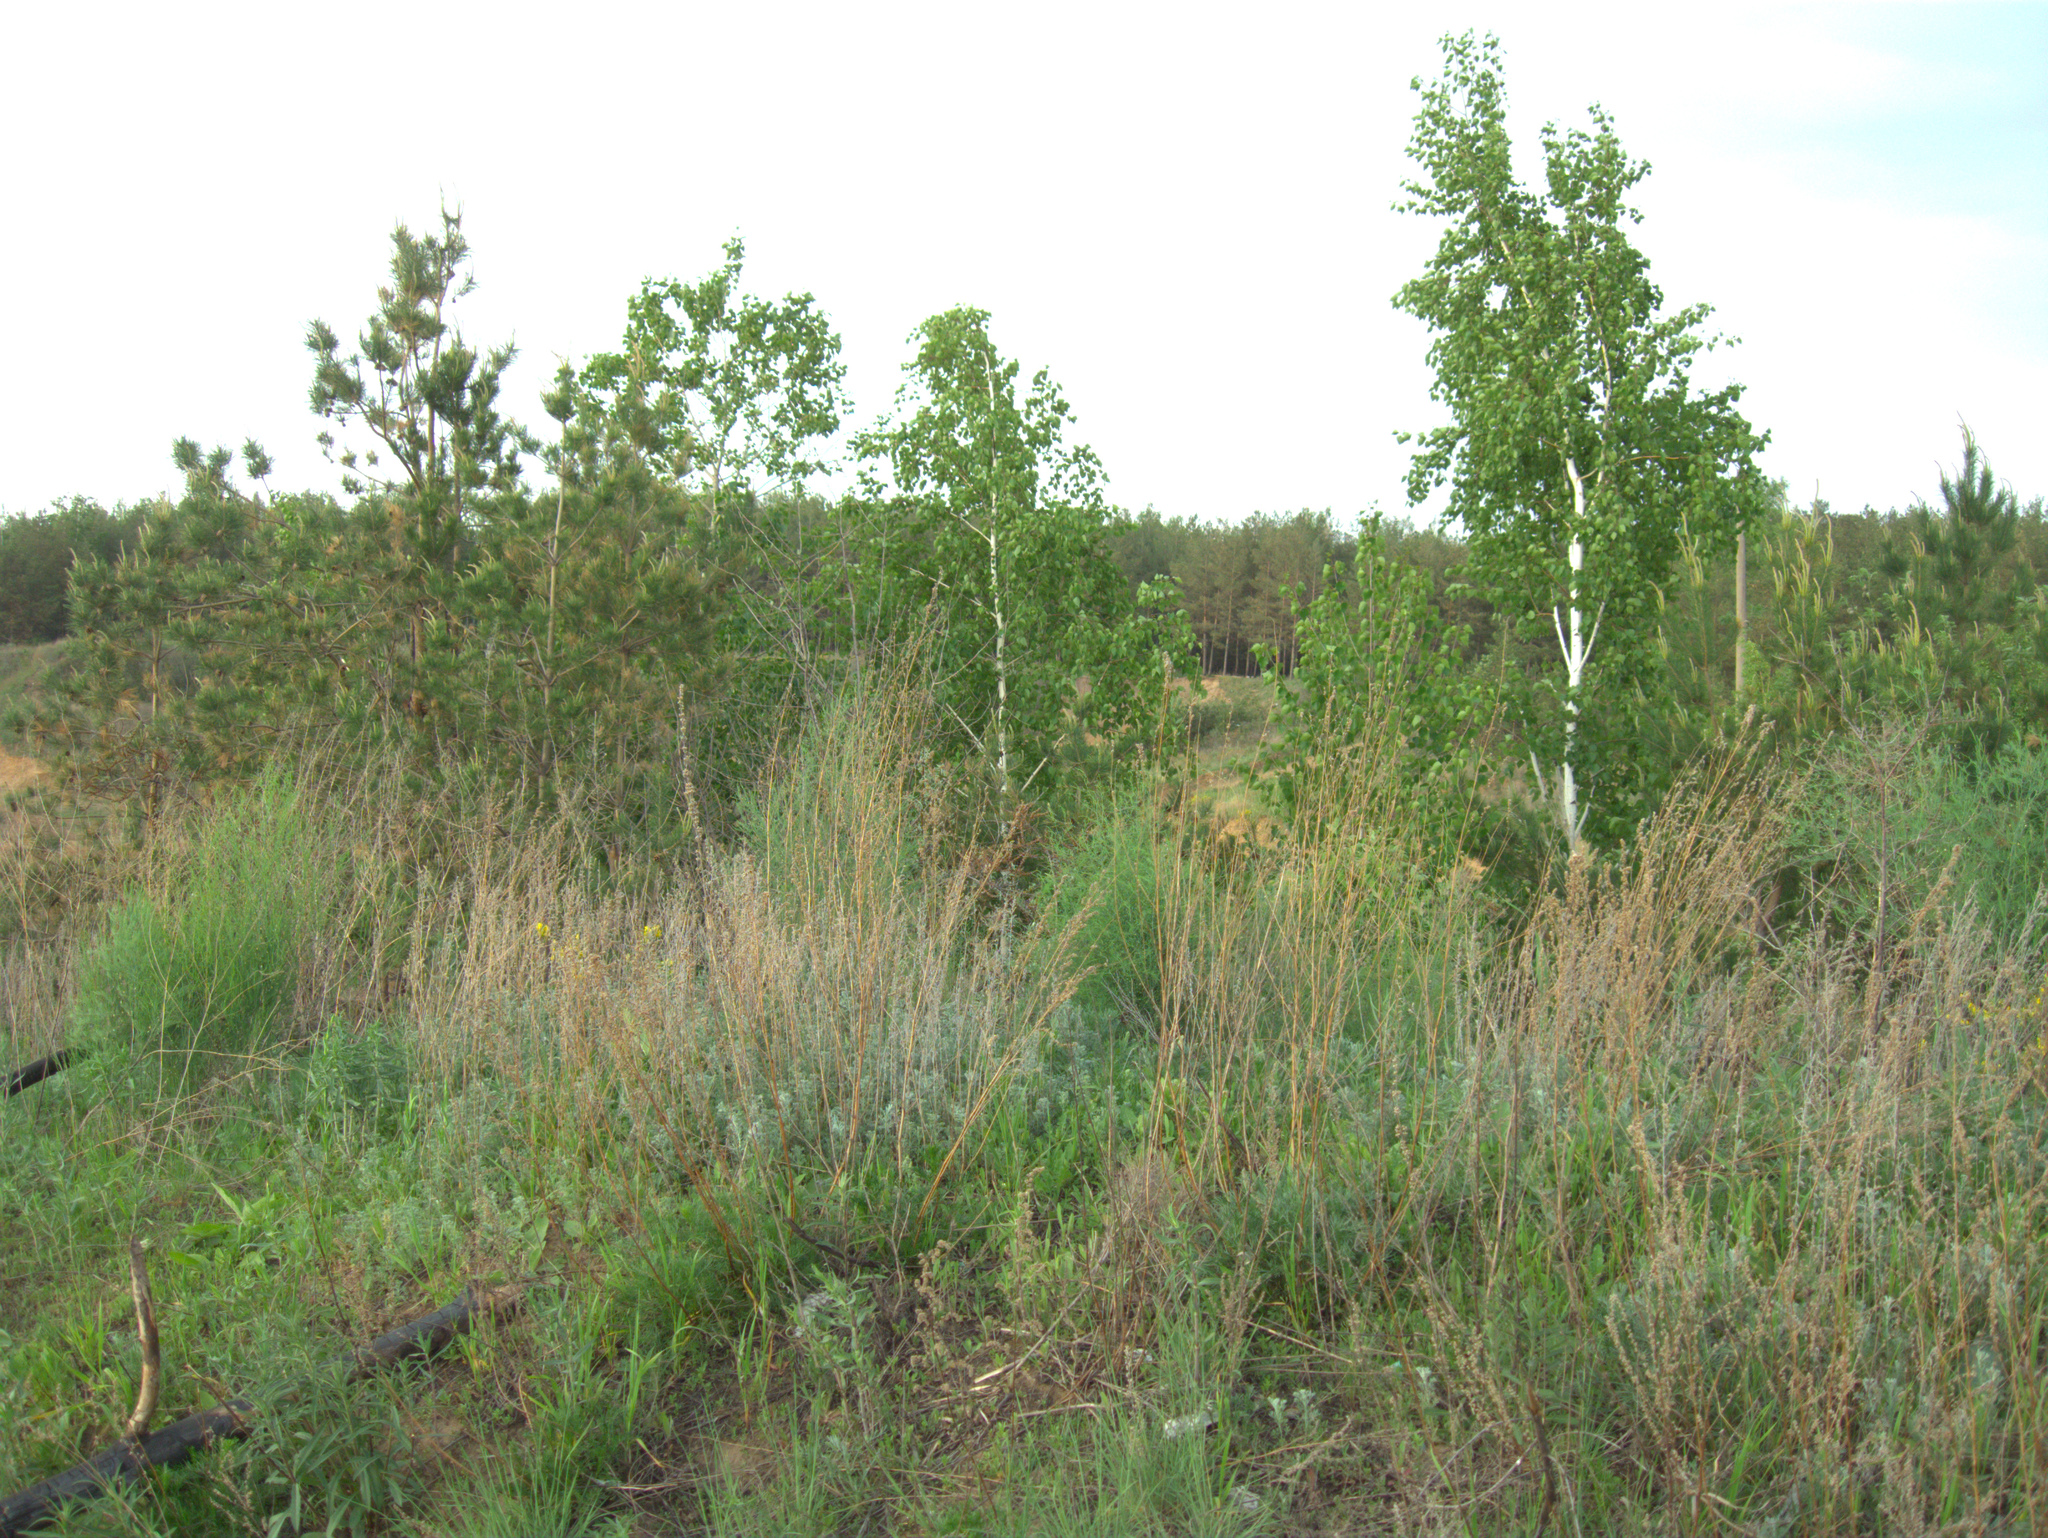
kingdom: Plantae
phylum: Tracheophyta
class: Magnoliopsida
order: Fagales
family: Betulaceae
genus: Betula
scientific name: Betula pendula
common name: Silver birch
